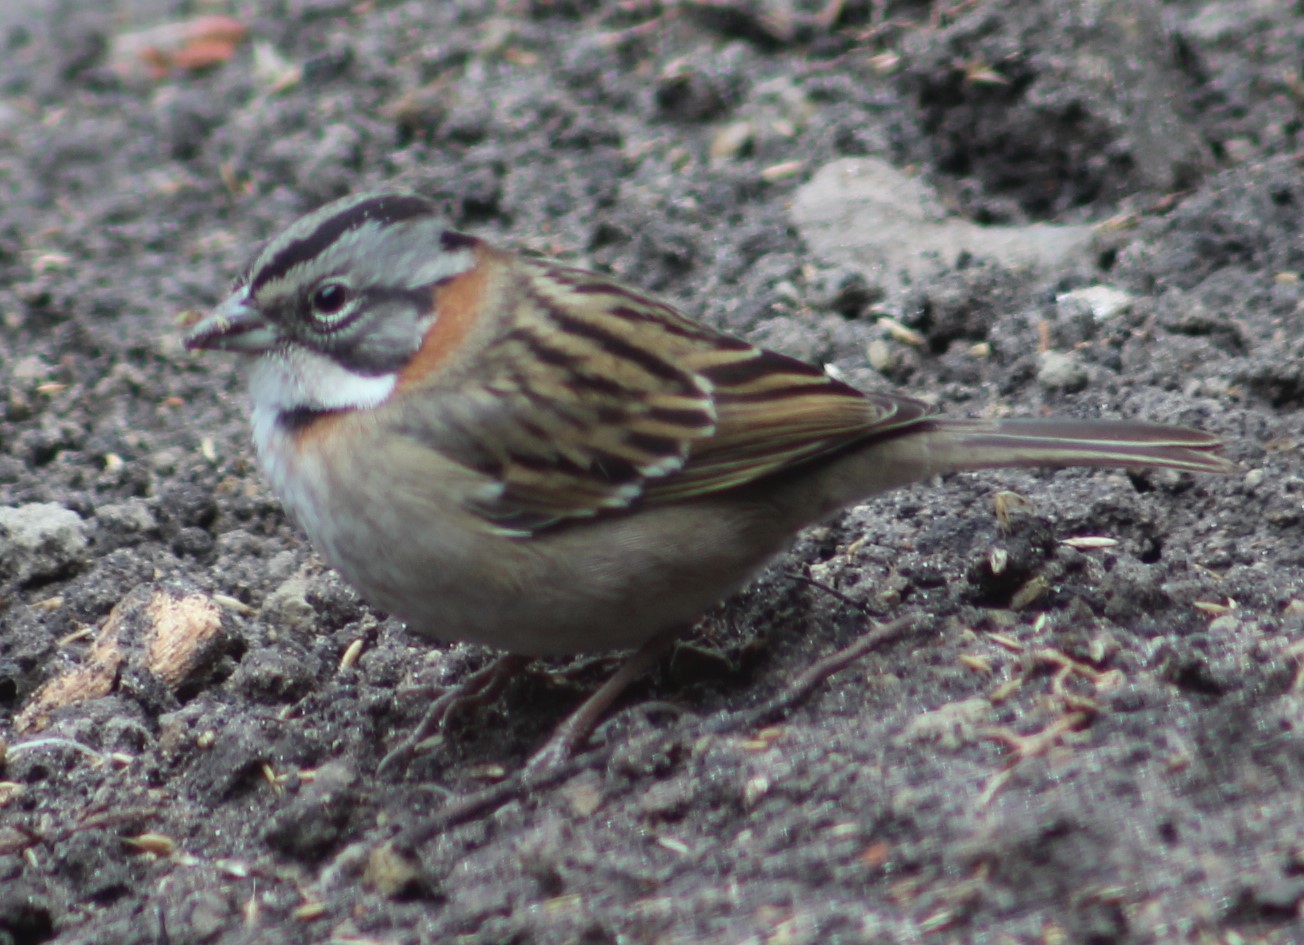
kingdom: Animalia
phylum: Chordata
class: Aves
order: Passeriformes
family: Passerellidae
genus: Zonotrichia
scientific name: Zonotrichia capensis
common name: Rufous-collared sparrow
